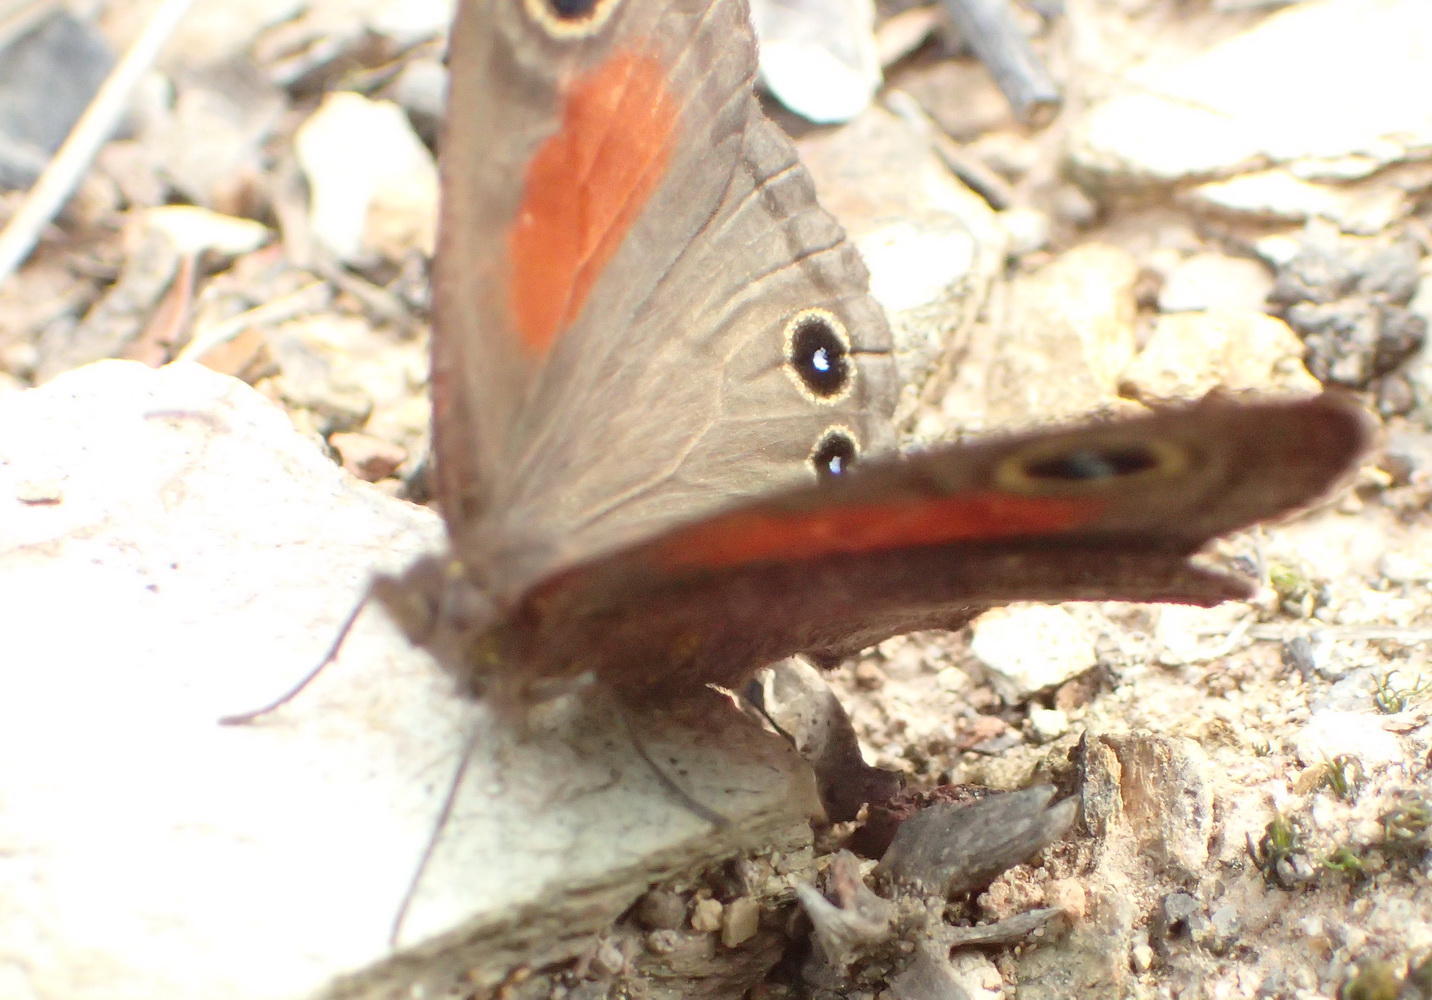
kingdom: Animalia
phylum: Arthropoda
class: Insecta
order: Lepidoptera
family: Nymphalidae
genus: Cassionympha
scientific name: Cassionympha cassius
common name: Rainforest brown
